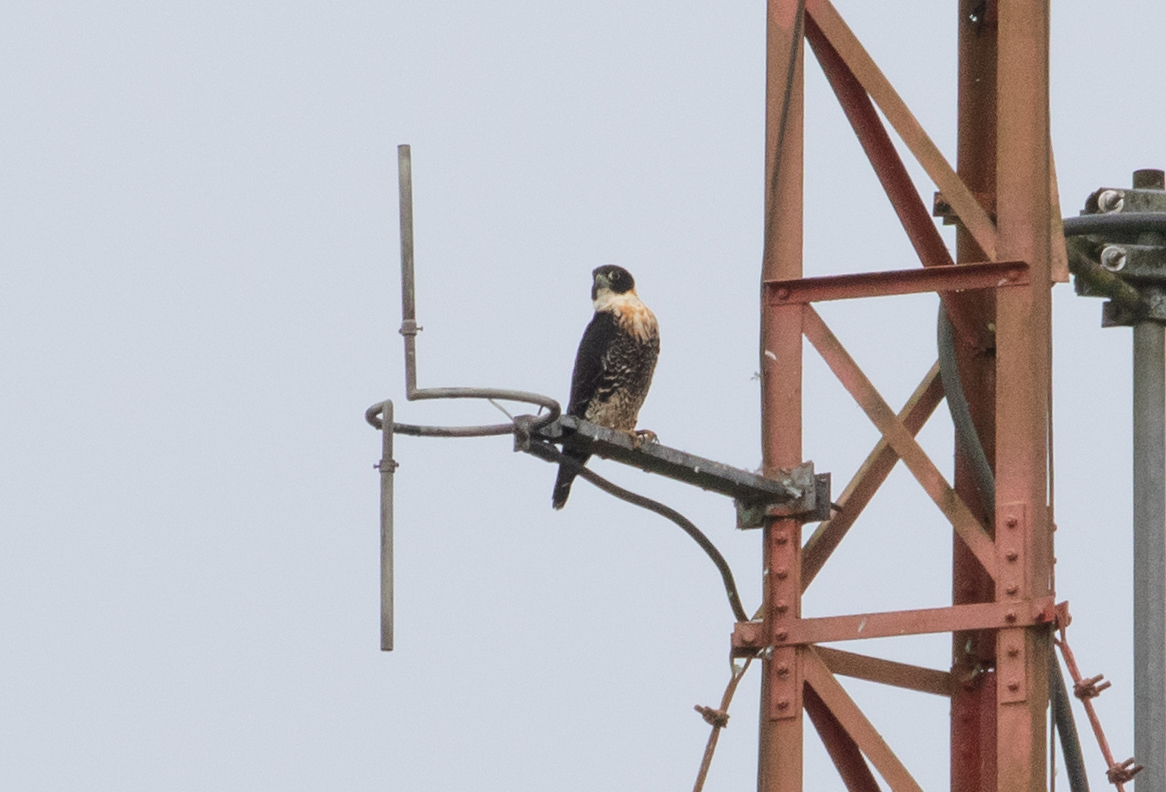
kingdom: Animalia
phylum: Chordata
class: Aves
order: Falconiformes
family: Falconidae
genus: Falco
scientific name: Falco deiroleucus
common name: Orange-breasted falcon
